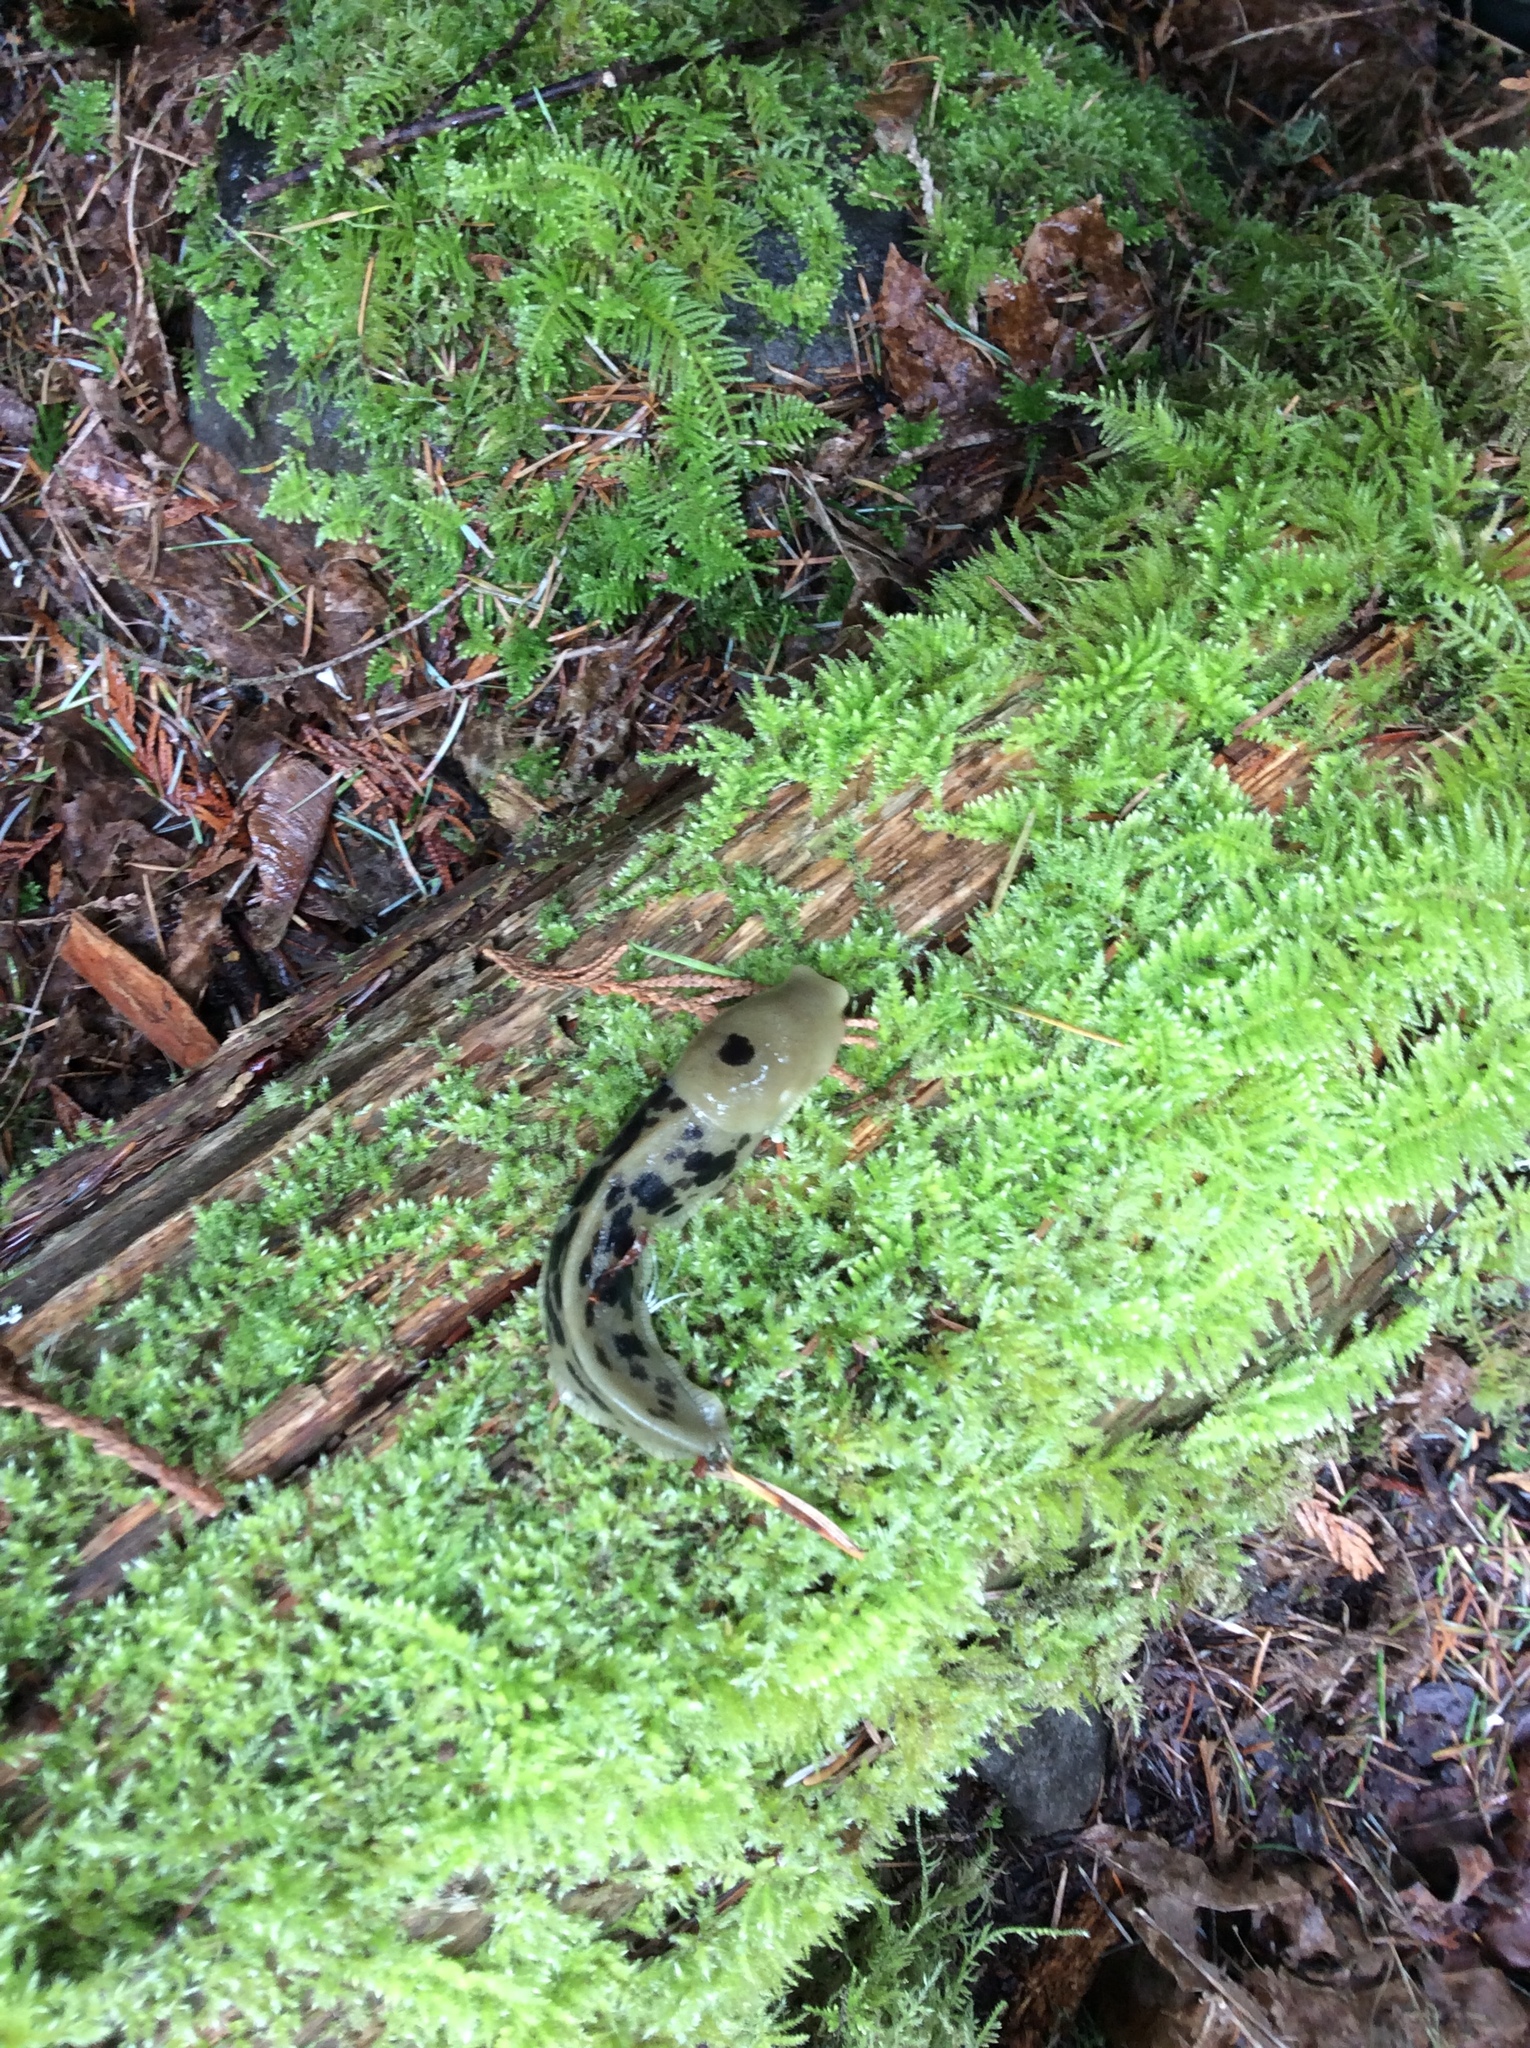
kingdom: Animalia
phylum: Mollusca
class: Gastropoda
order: Stylommatophora
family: Ariolimacidae
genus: Ariolimax
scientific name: Ariolimax columbianus
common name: Pacific banana slug
